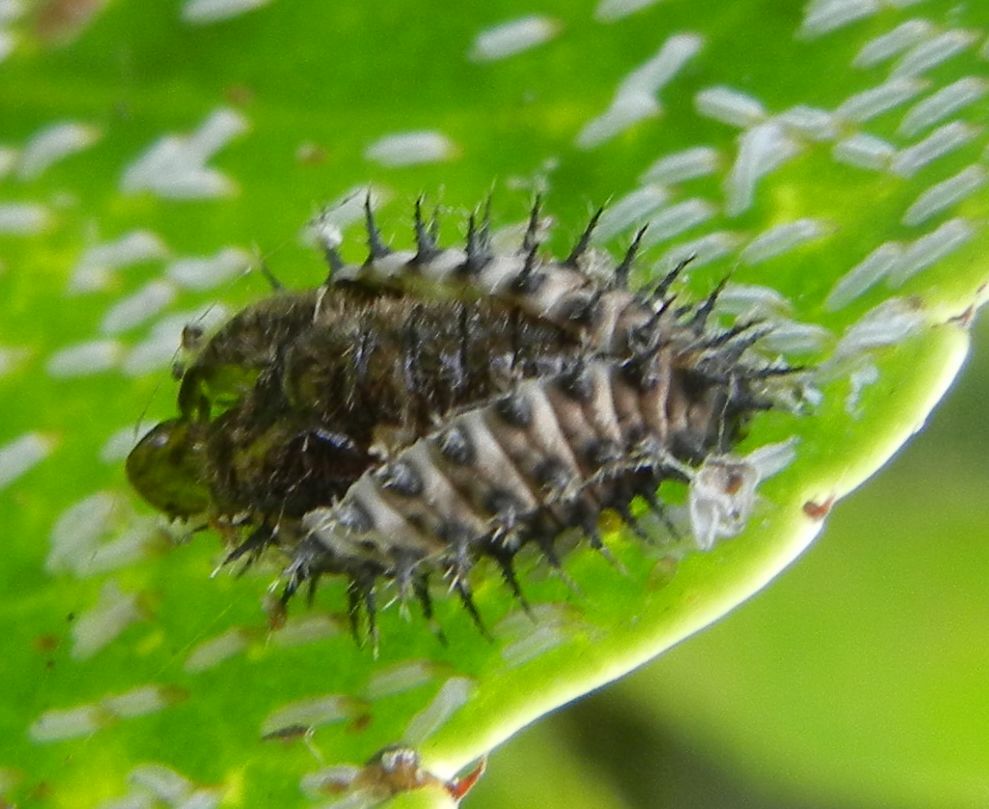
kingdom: Animalia
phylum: Arthropoda
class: Insecta
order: Coleoptera
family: Coccinellidae
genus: Chilocorus
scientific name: Chilocorus renipustulatus
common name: Kidney-spot ladybird
